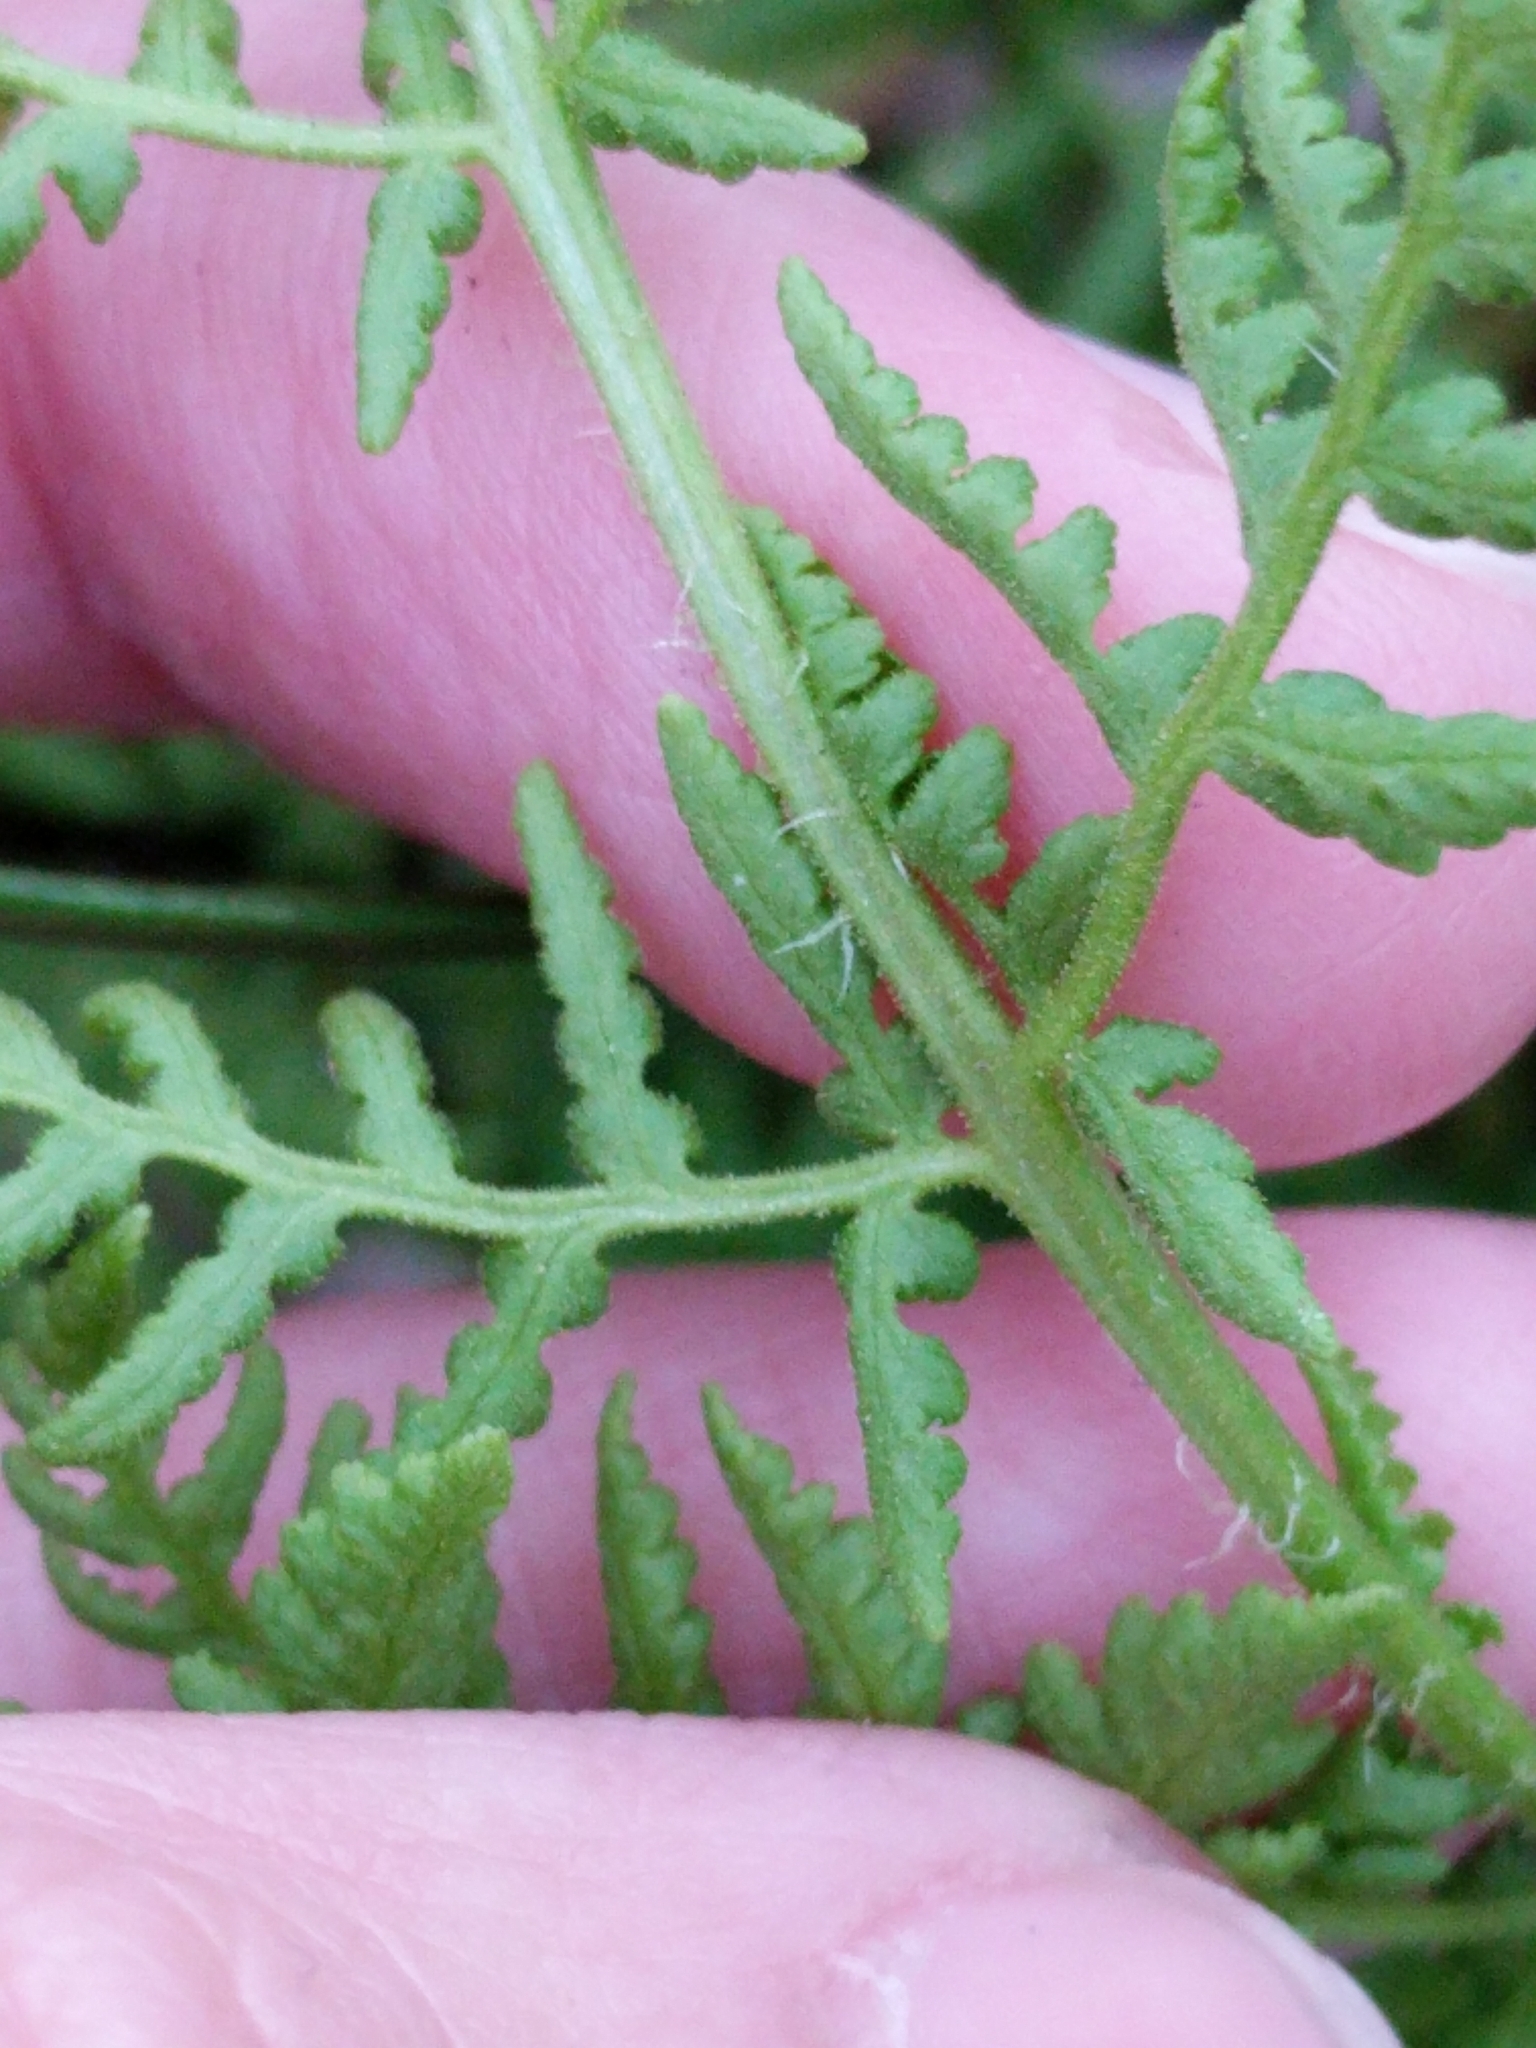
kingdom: Plantae
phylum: Tracheophyta
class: Polypodiopsida
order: Polypodiales
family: Woodsiaceae
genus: Physematium
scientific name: Physematium obtusum
